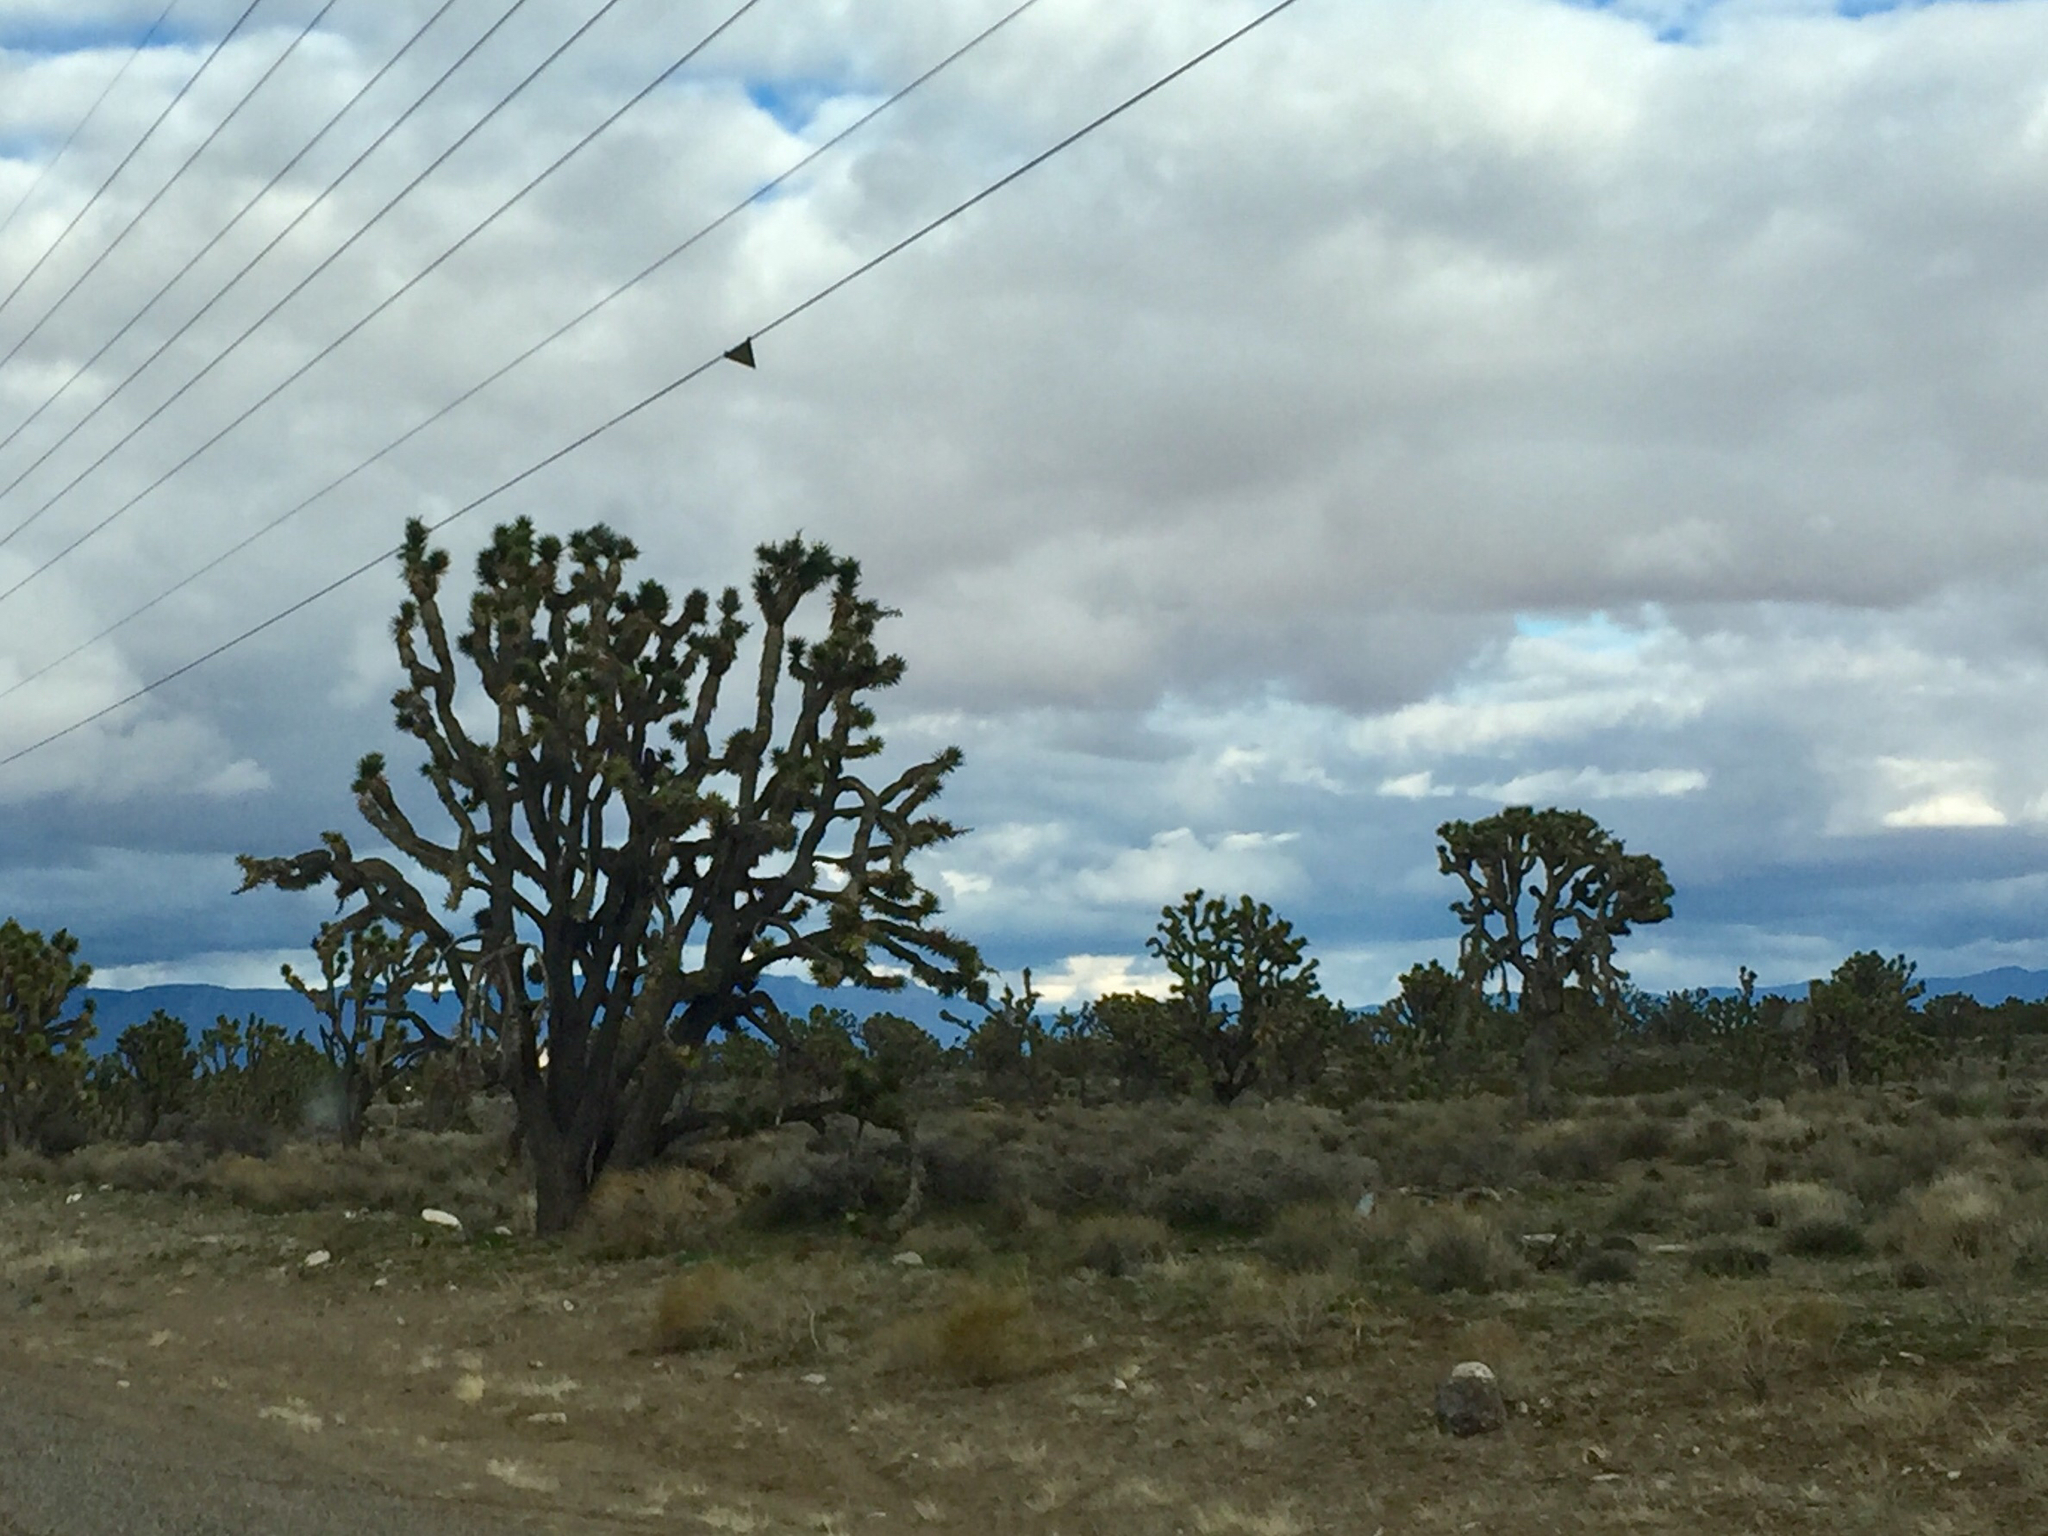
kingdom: Plantae
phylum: Tracheophyta
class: Liliopsida
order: Asparagales
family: Asparagaceae
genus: Yucca
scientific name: Yucca brevifolia
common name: Joshua tree
